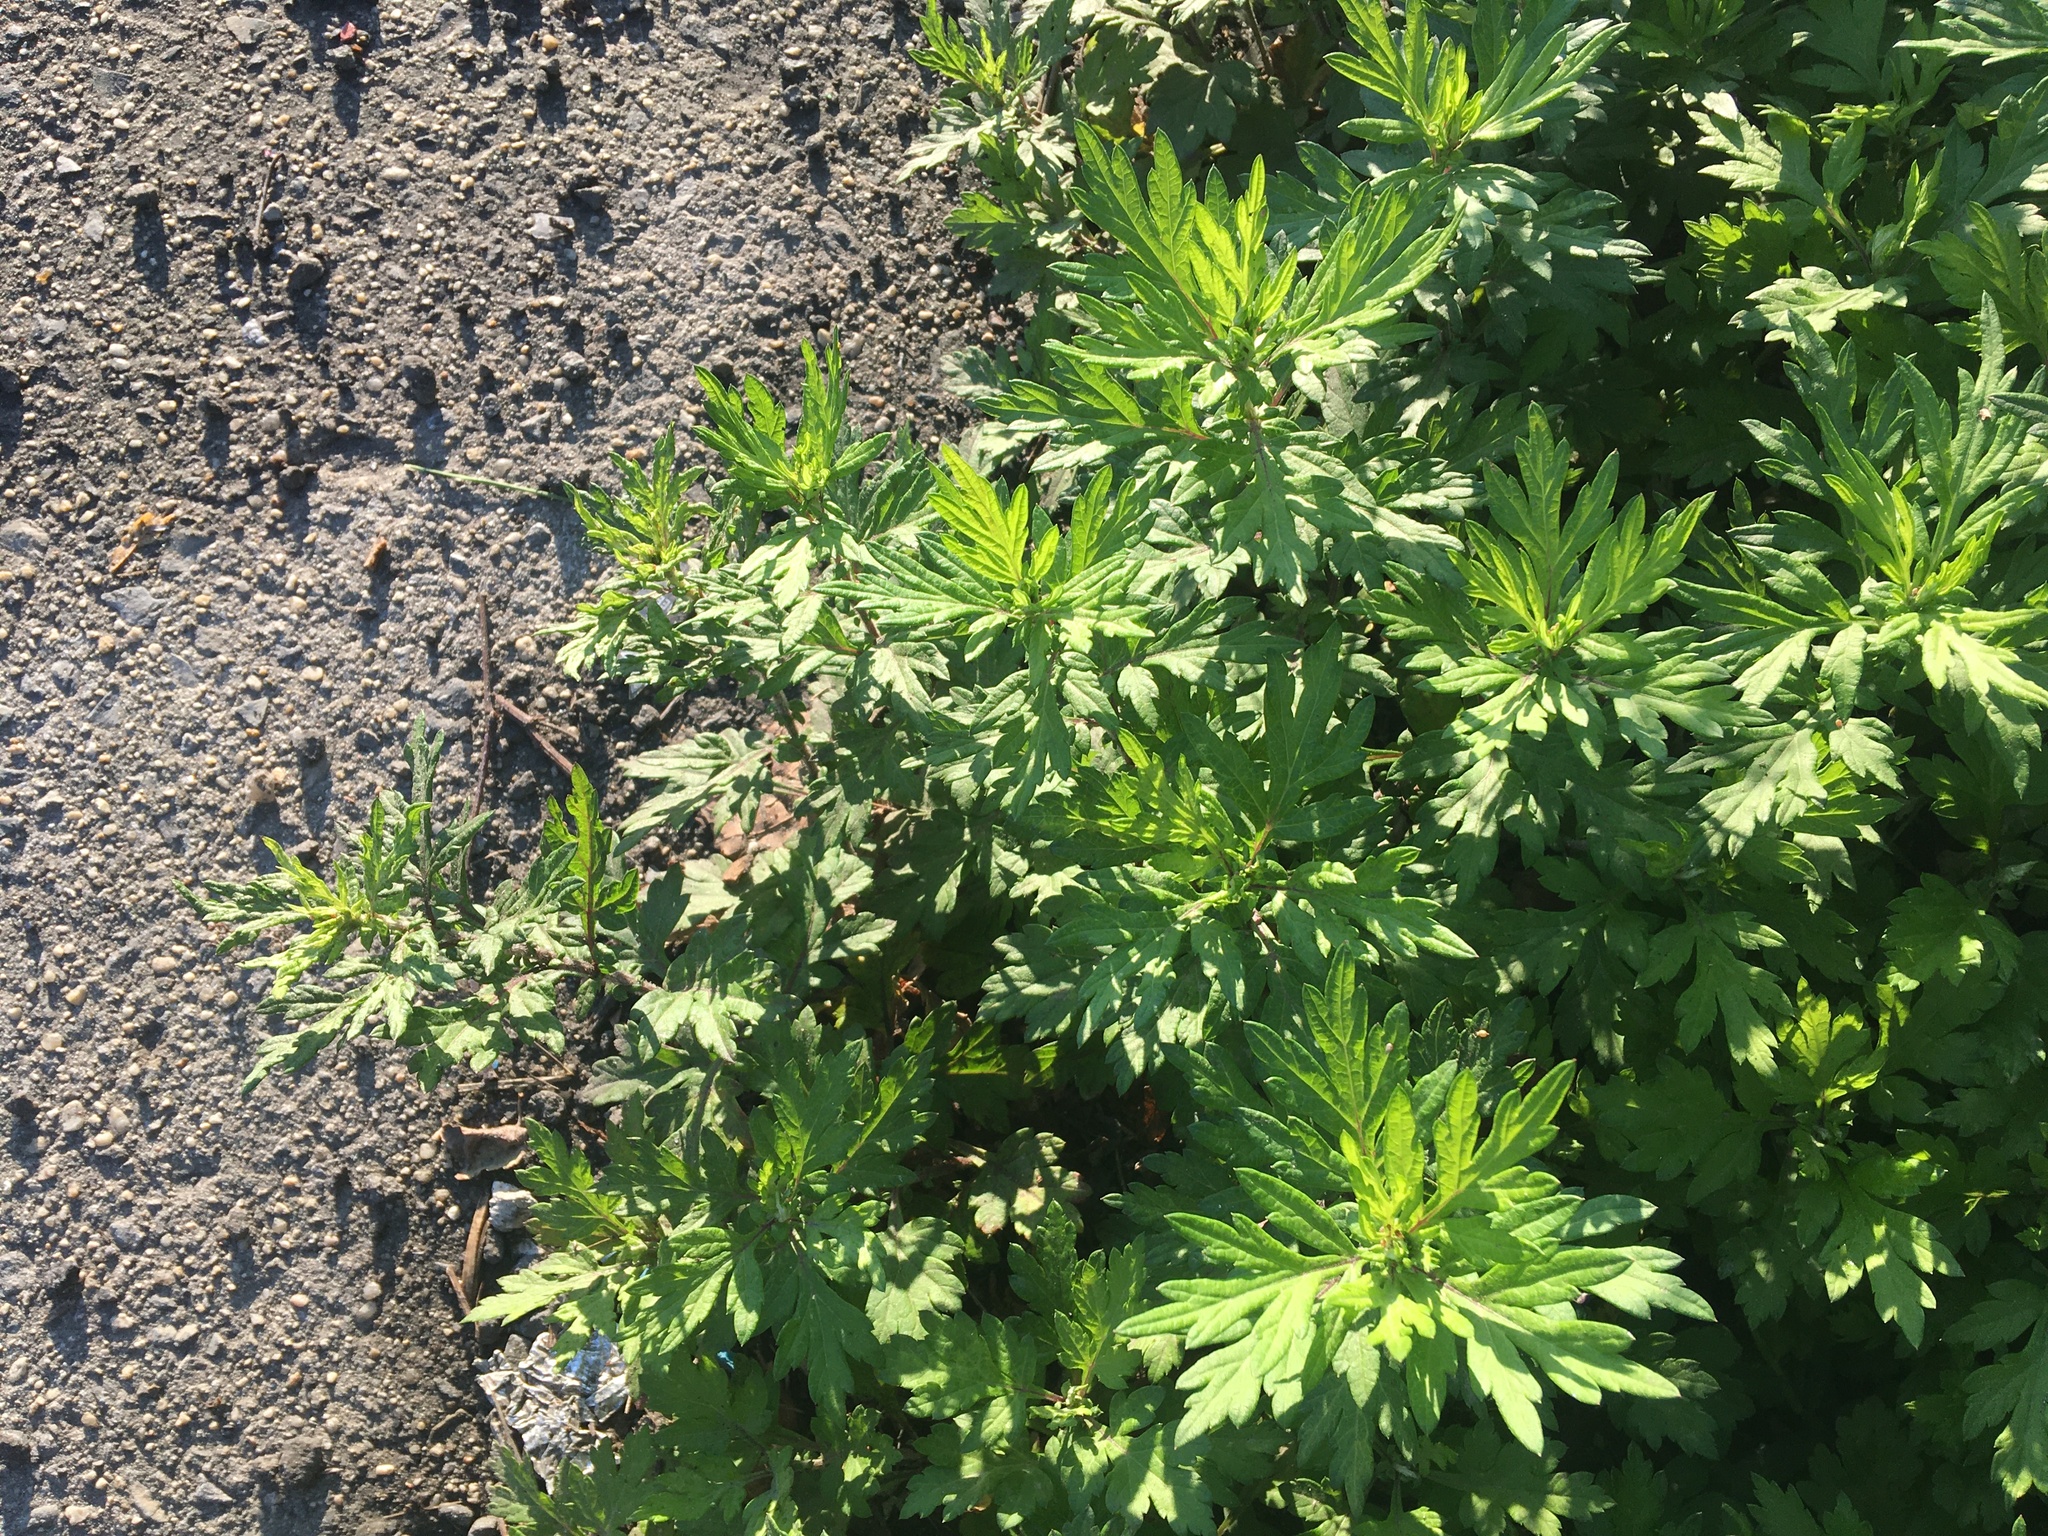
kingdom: Plantae
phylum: Tracheophyta
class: Magnoliopsida
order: Asterales
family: Asteraceae
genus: Artemisia
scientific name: Artemisia vulgaris
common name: Mugwort
